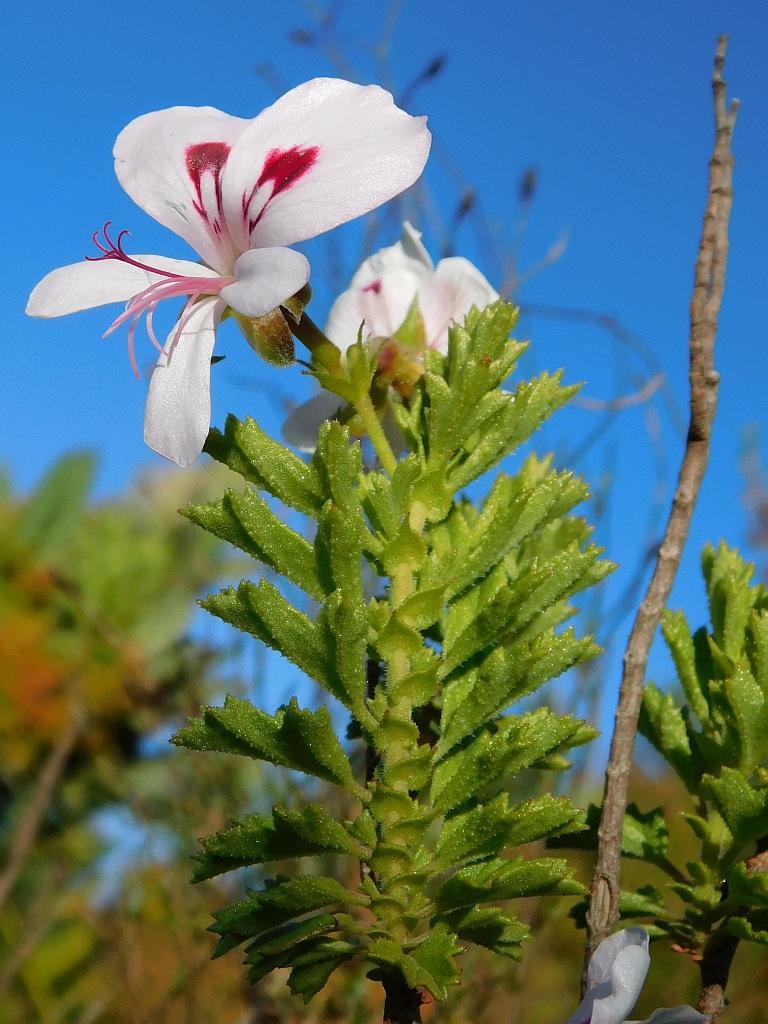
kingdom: Plantae
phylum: Tracheophyta
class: Magnoliopsida
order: Geraniales
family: Geraniaceae
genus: Pelargonium
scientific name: Pelargonium hermaniifolium
